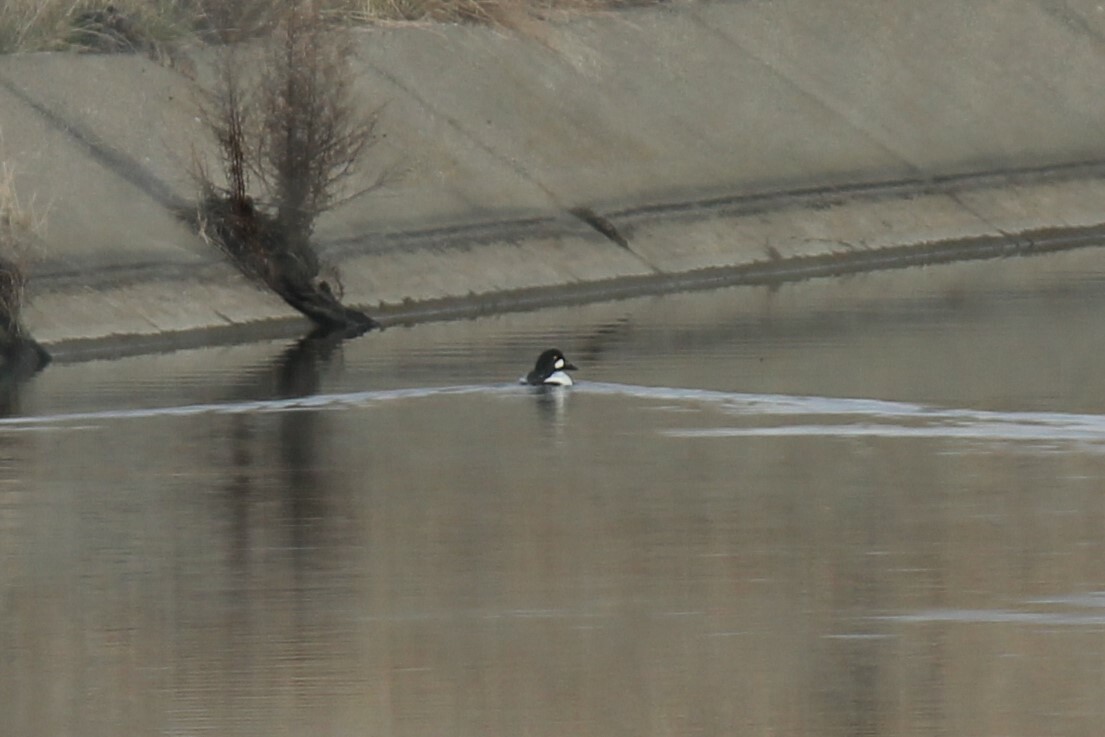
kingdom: Animalia
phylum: Chordata
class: Aves
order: Anseriformes
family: Anatidae
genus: Bucephala
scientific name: Bucephala clangula
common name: Common goldeneye
